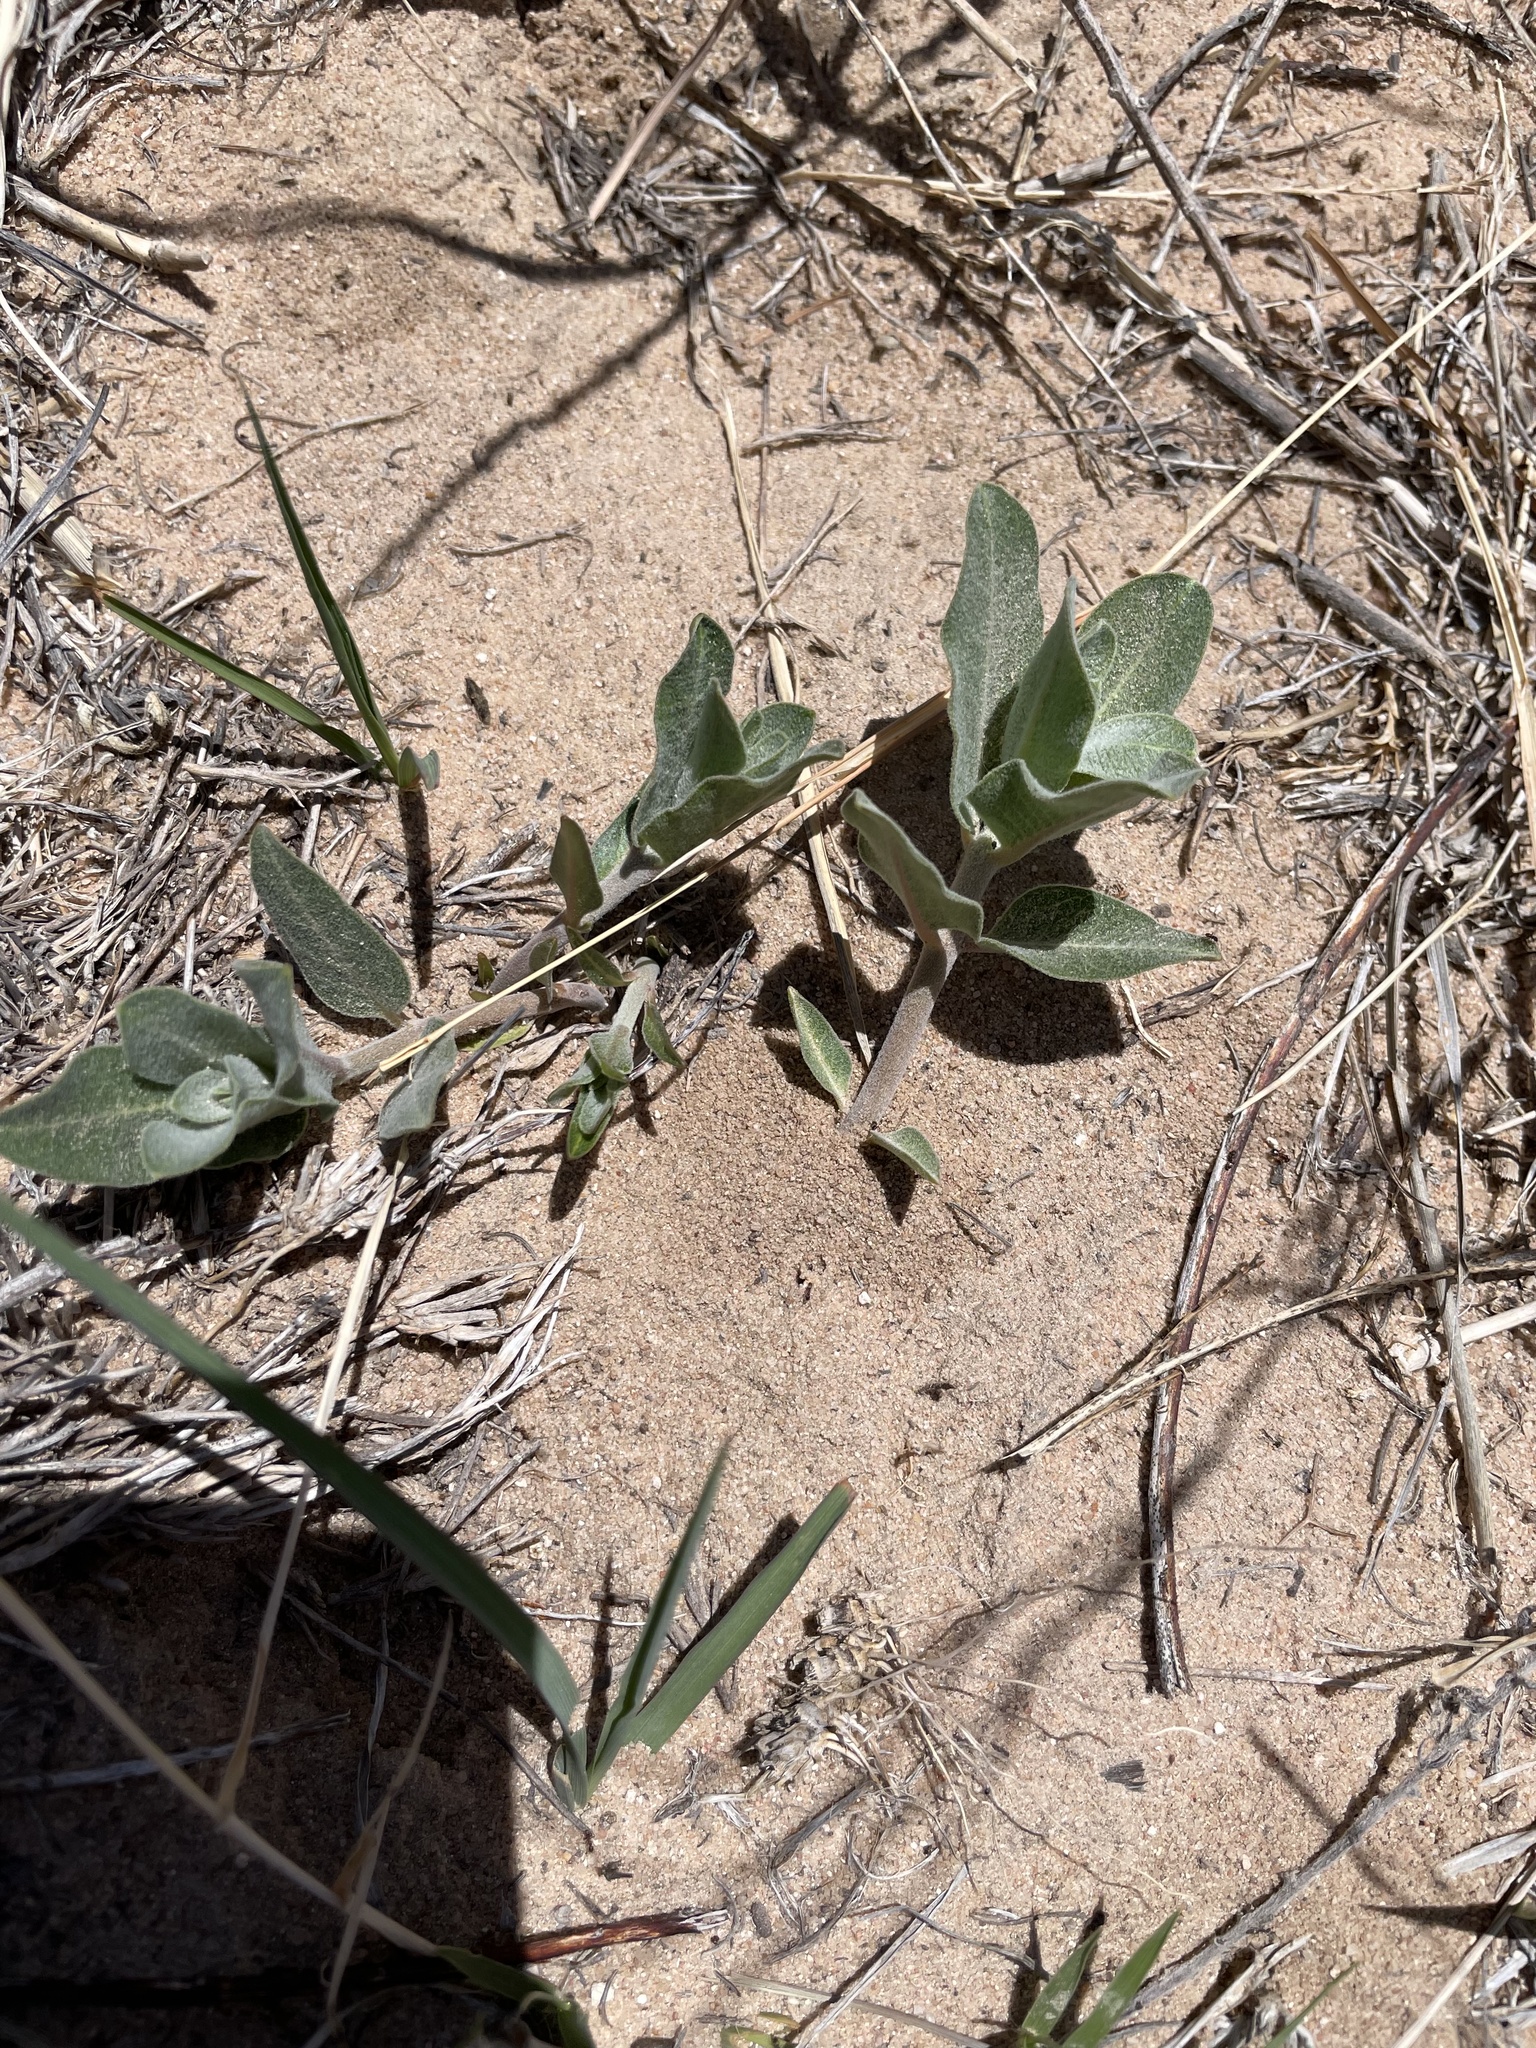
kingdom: Plantae
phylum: Tracheophyta
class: Magnoliopsida
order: Gentianales
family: Apocynaceae
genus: Asclepias
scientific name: Asclepias arenaria
